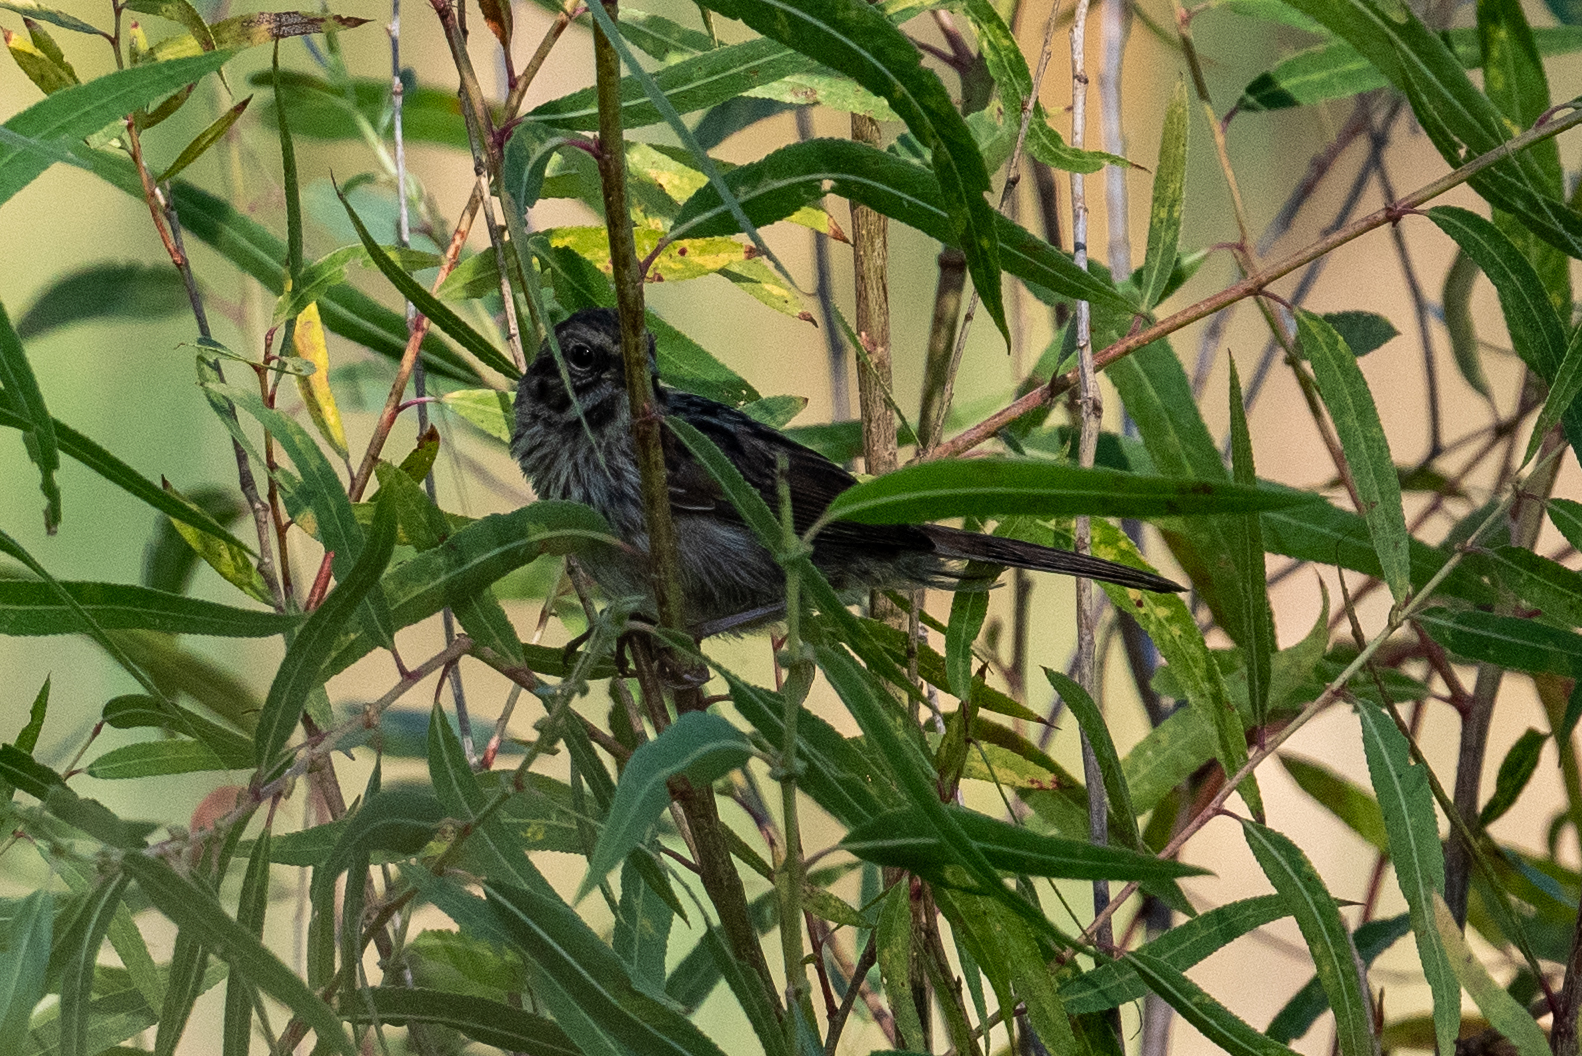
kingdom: Animalia
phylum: Chordata
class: Aves
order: Passeriformes
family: Passerellidae
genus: Melospiza
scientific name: Melospiza melodia
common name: Song sparrow
